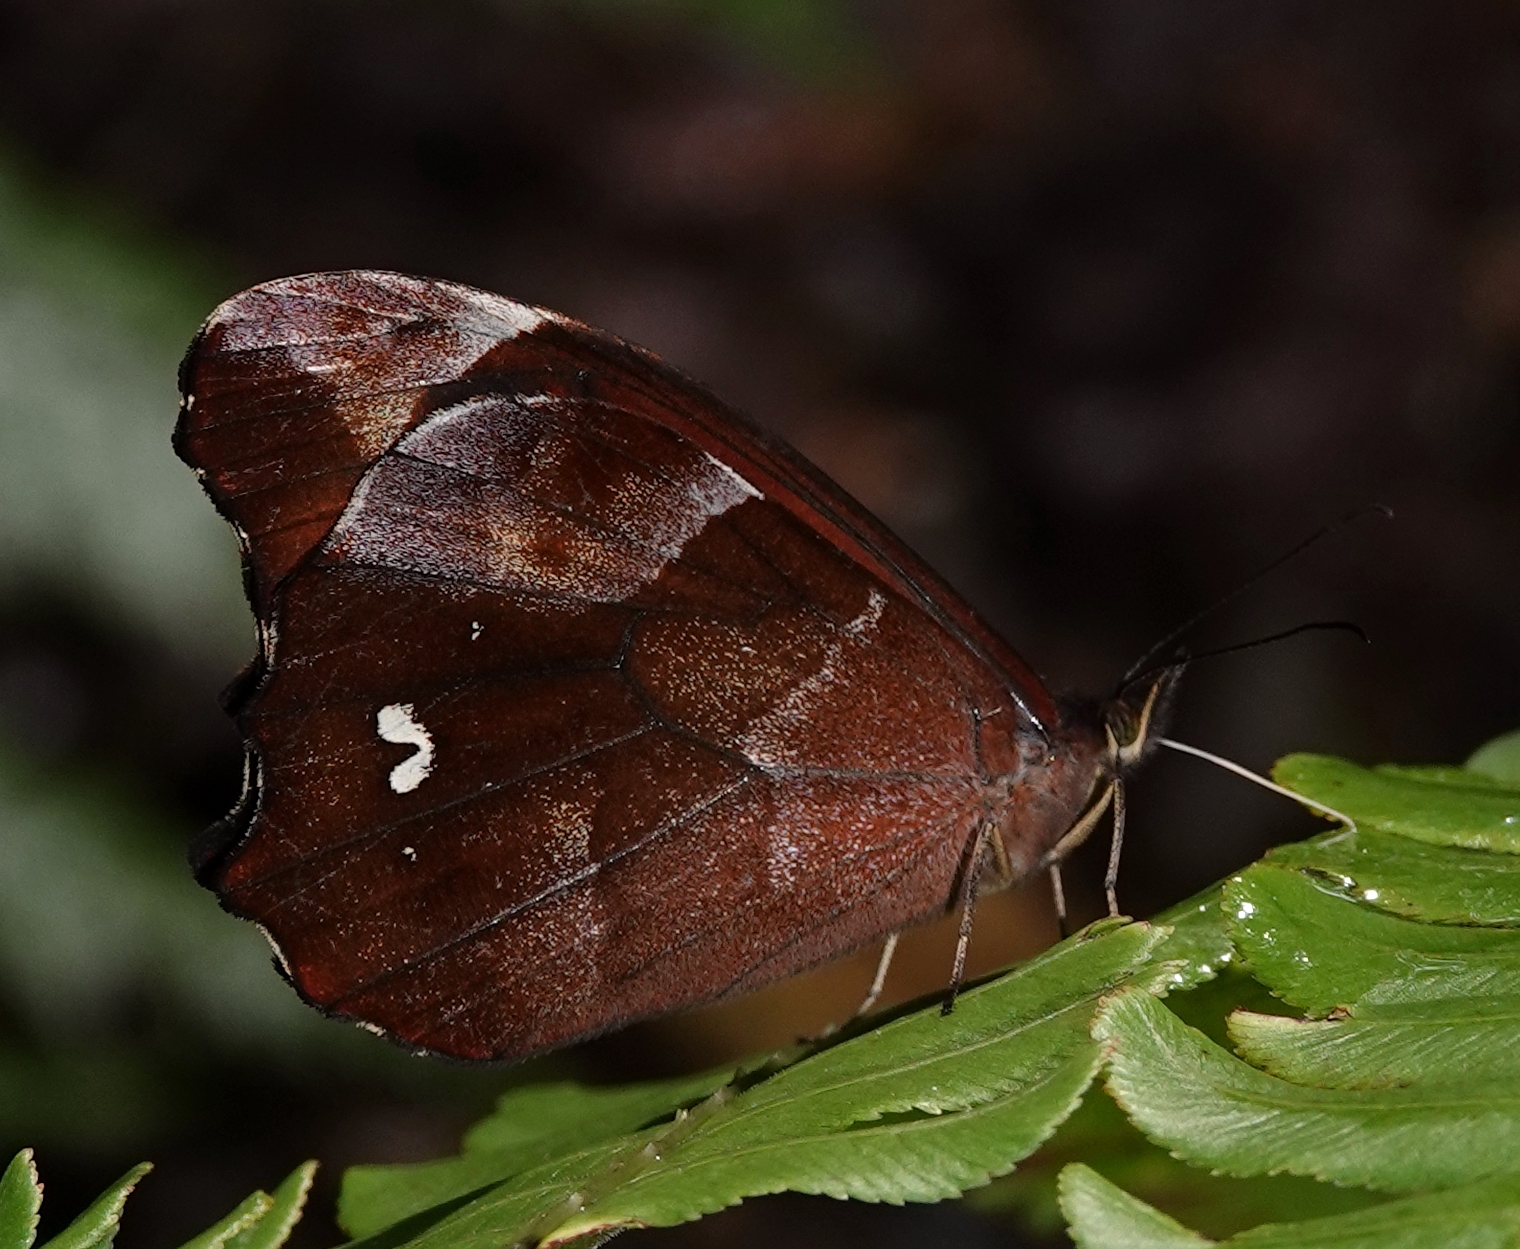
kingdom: Animalia
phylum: Arthropoda
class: Insecta
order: Lepidoptera
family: Nymphalidae
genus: Mygona
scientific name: Mygona irmina
